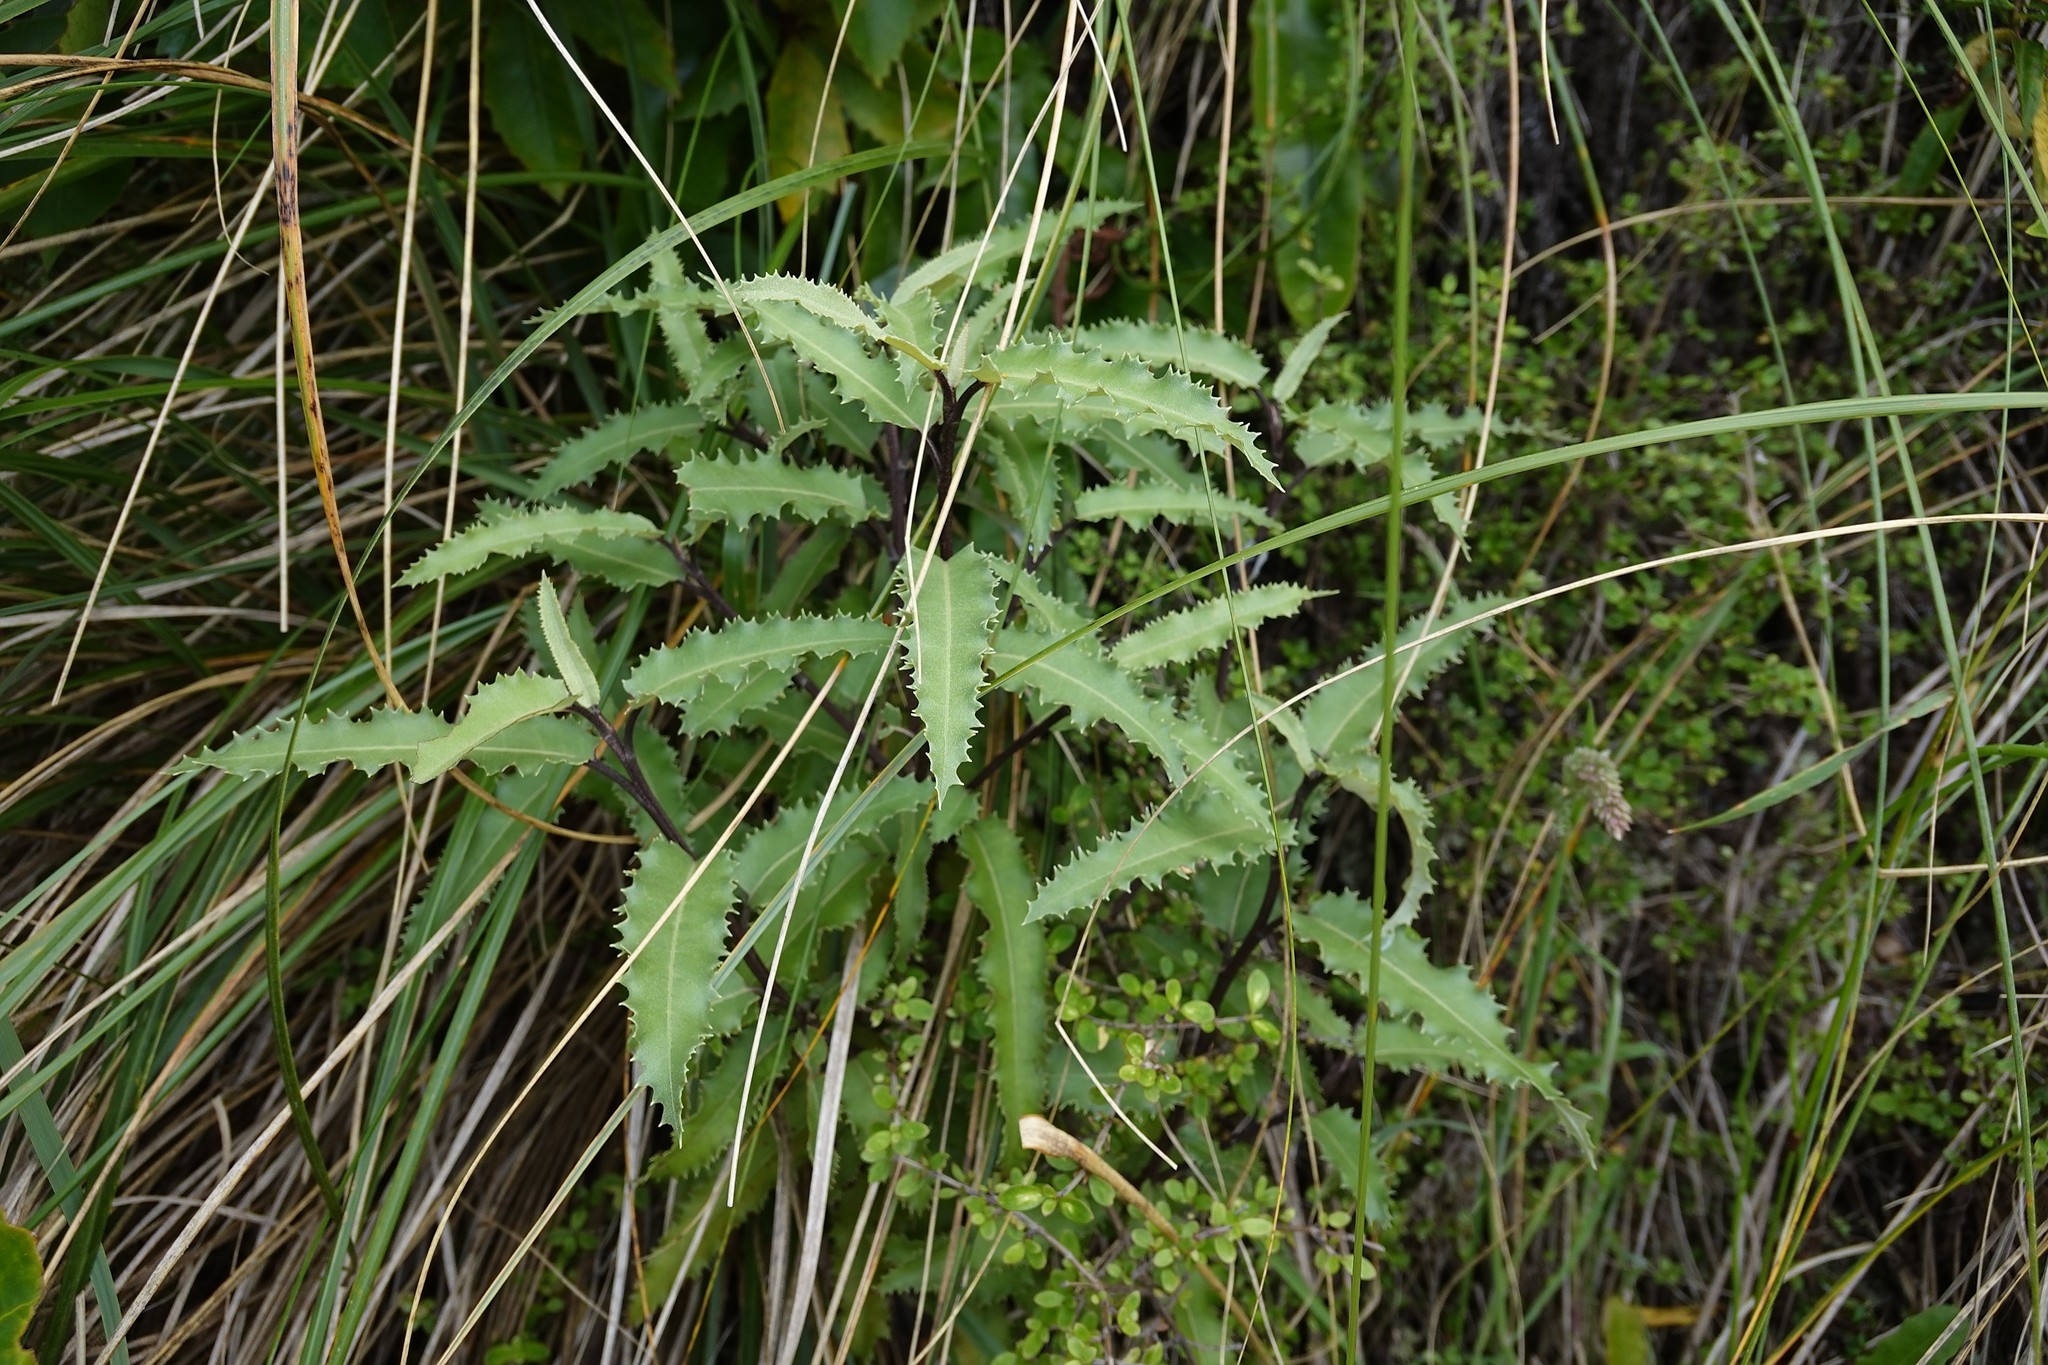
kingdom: Plantae
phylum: Tracheophyta
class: Magnoliopsida
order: Asterales
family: Asteraceae
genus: Olearia
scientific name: Olearia ilicifolia
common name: Maori-holly
